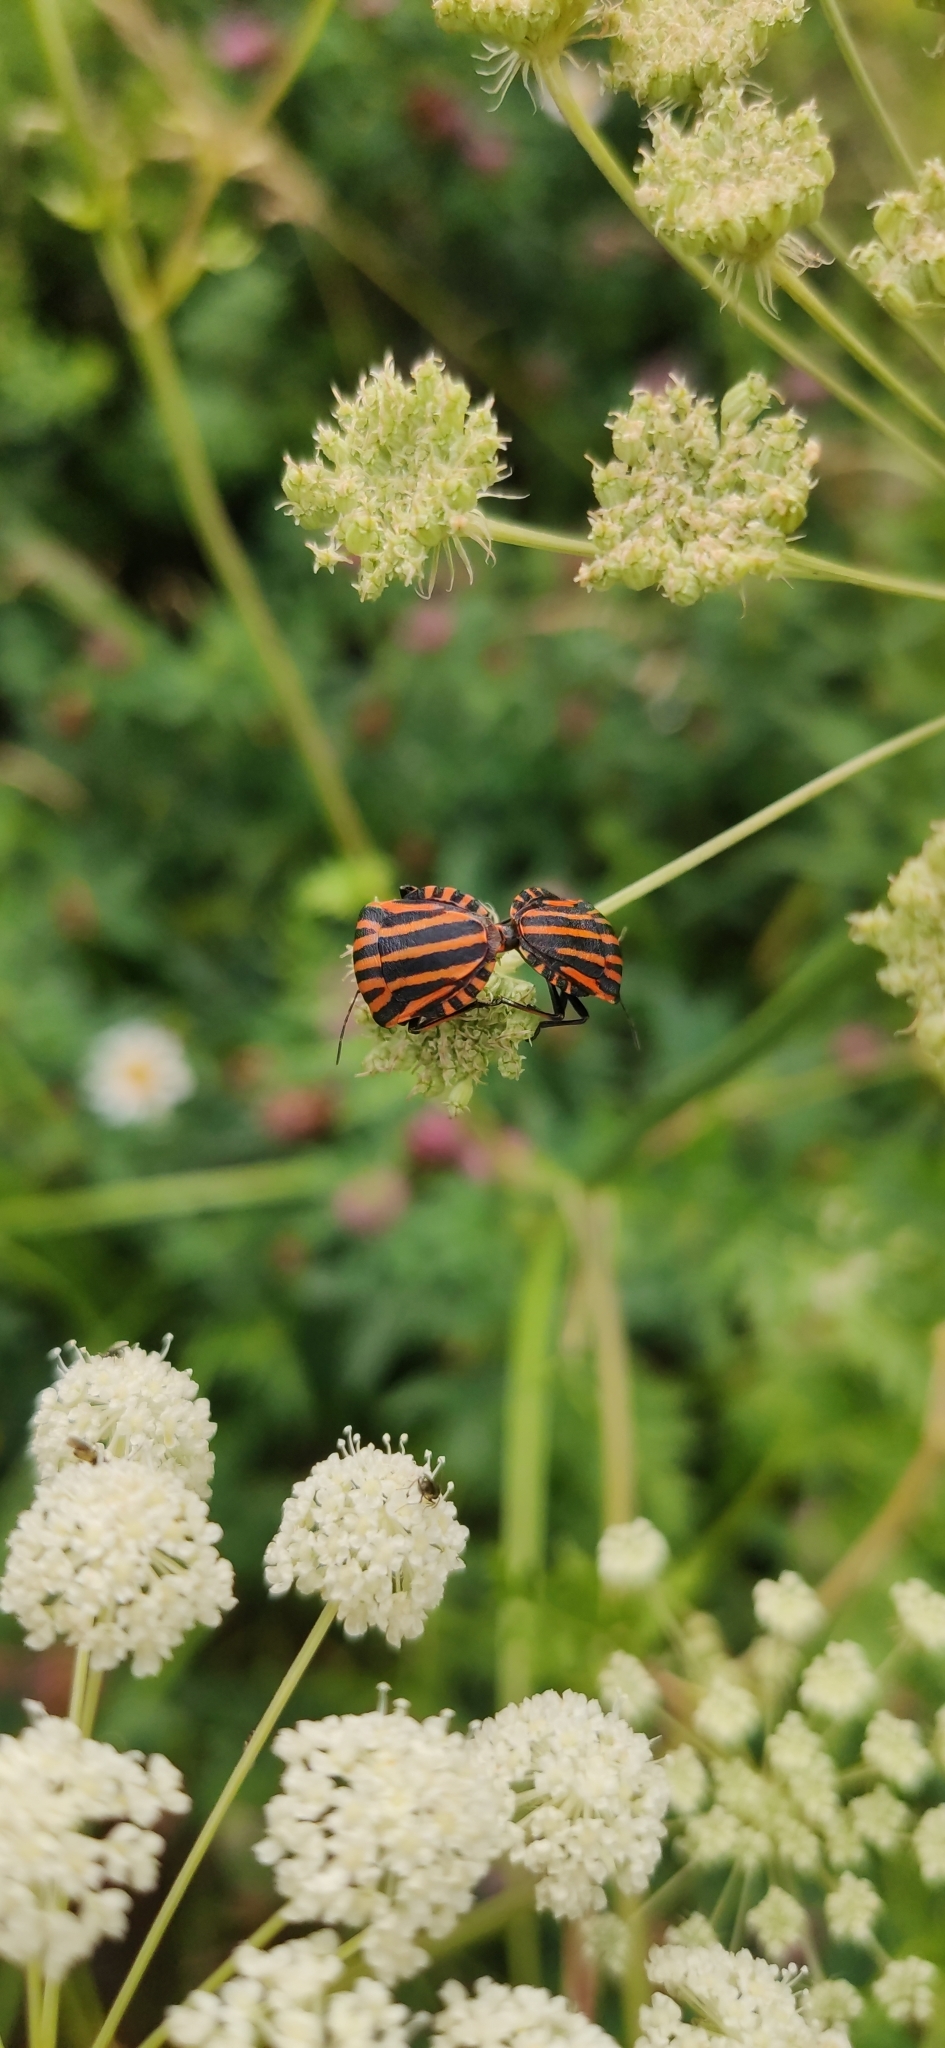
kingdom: Animalia
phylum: Arthropoda
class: Insecta
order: Hemiptera
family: Pentatomidae
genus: Graphosoma
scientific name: Graphosoma italicum
